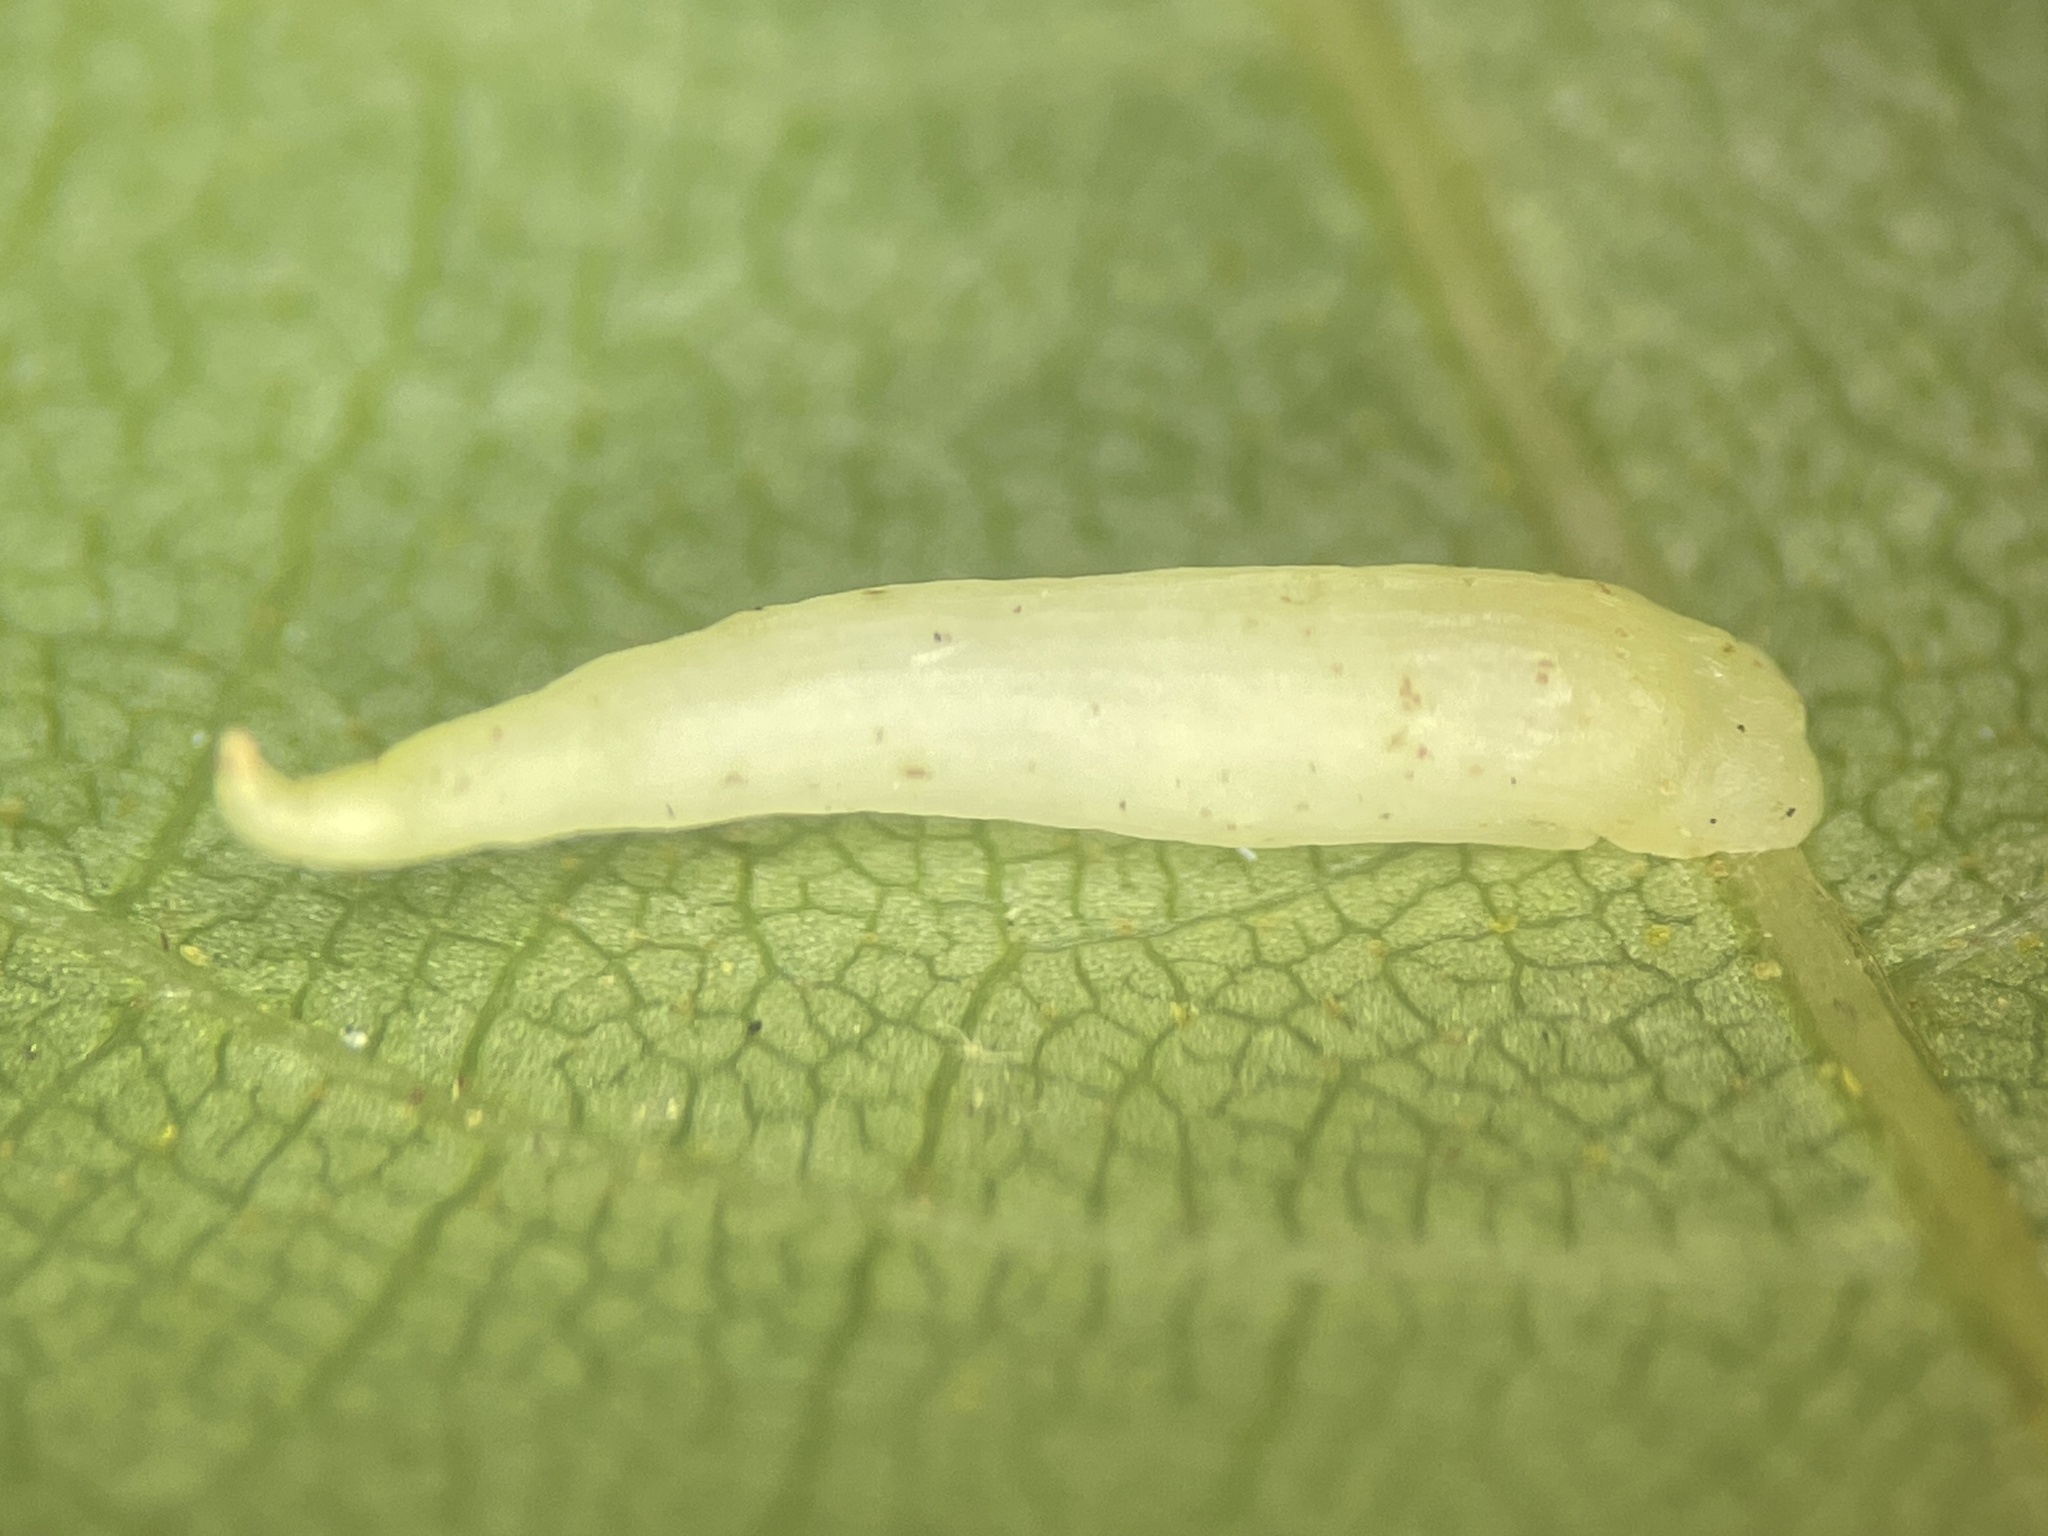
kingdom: Animalia
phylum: Arthropoda
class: Insecta
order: Diptera
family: Cecidomyiidae
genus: Caryomyia
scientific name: Caryomyia
